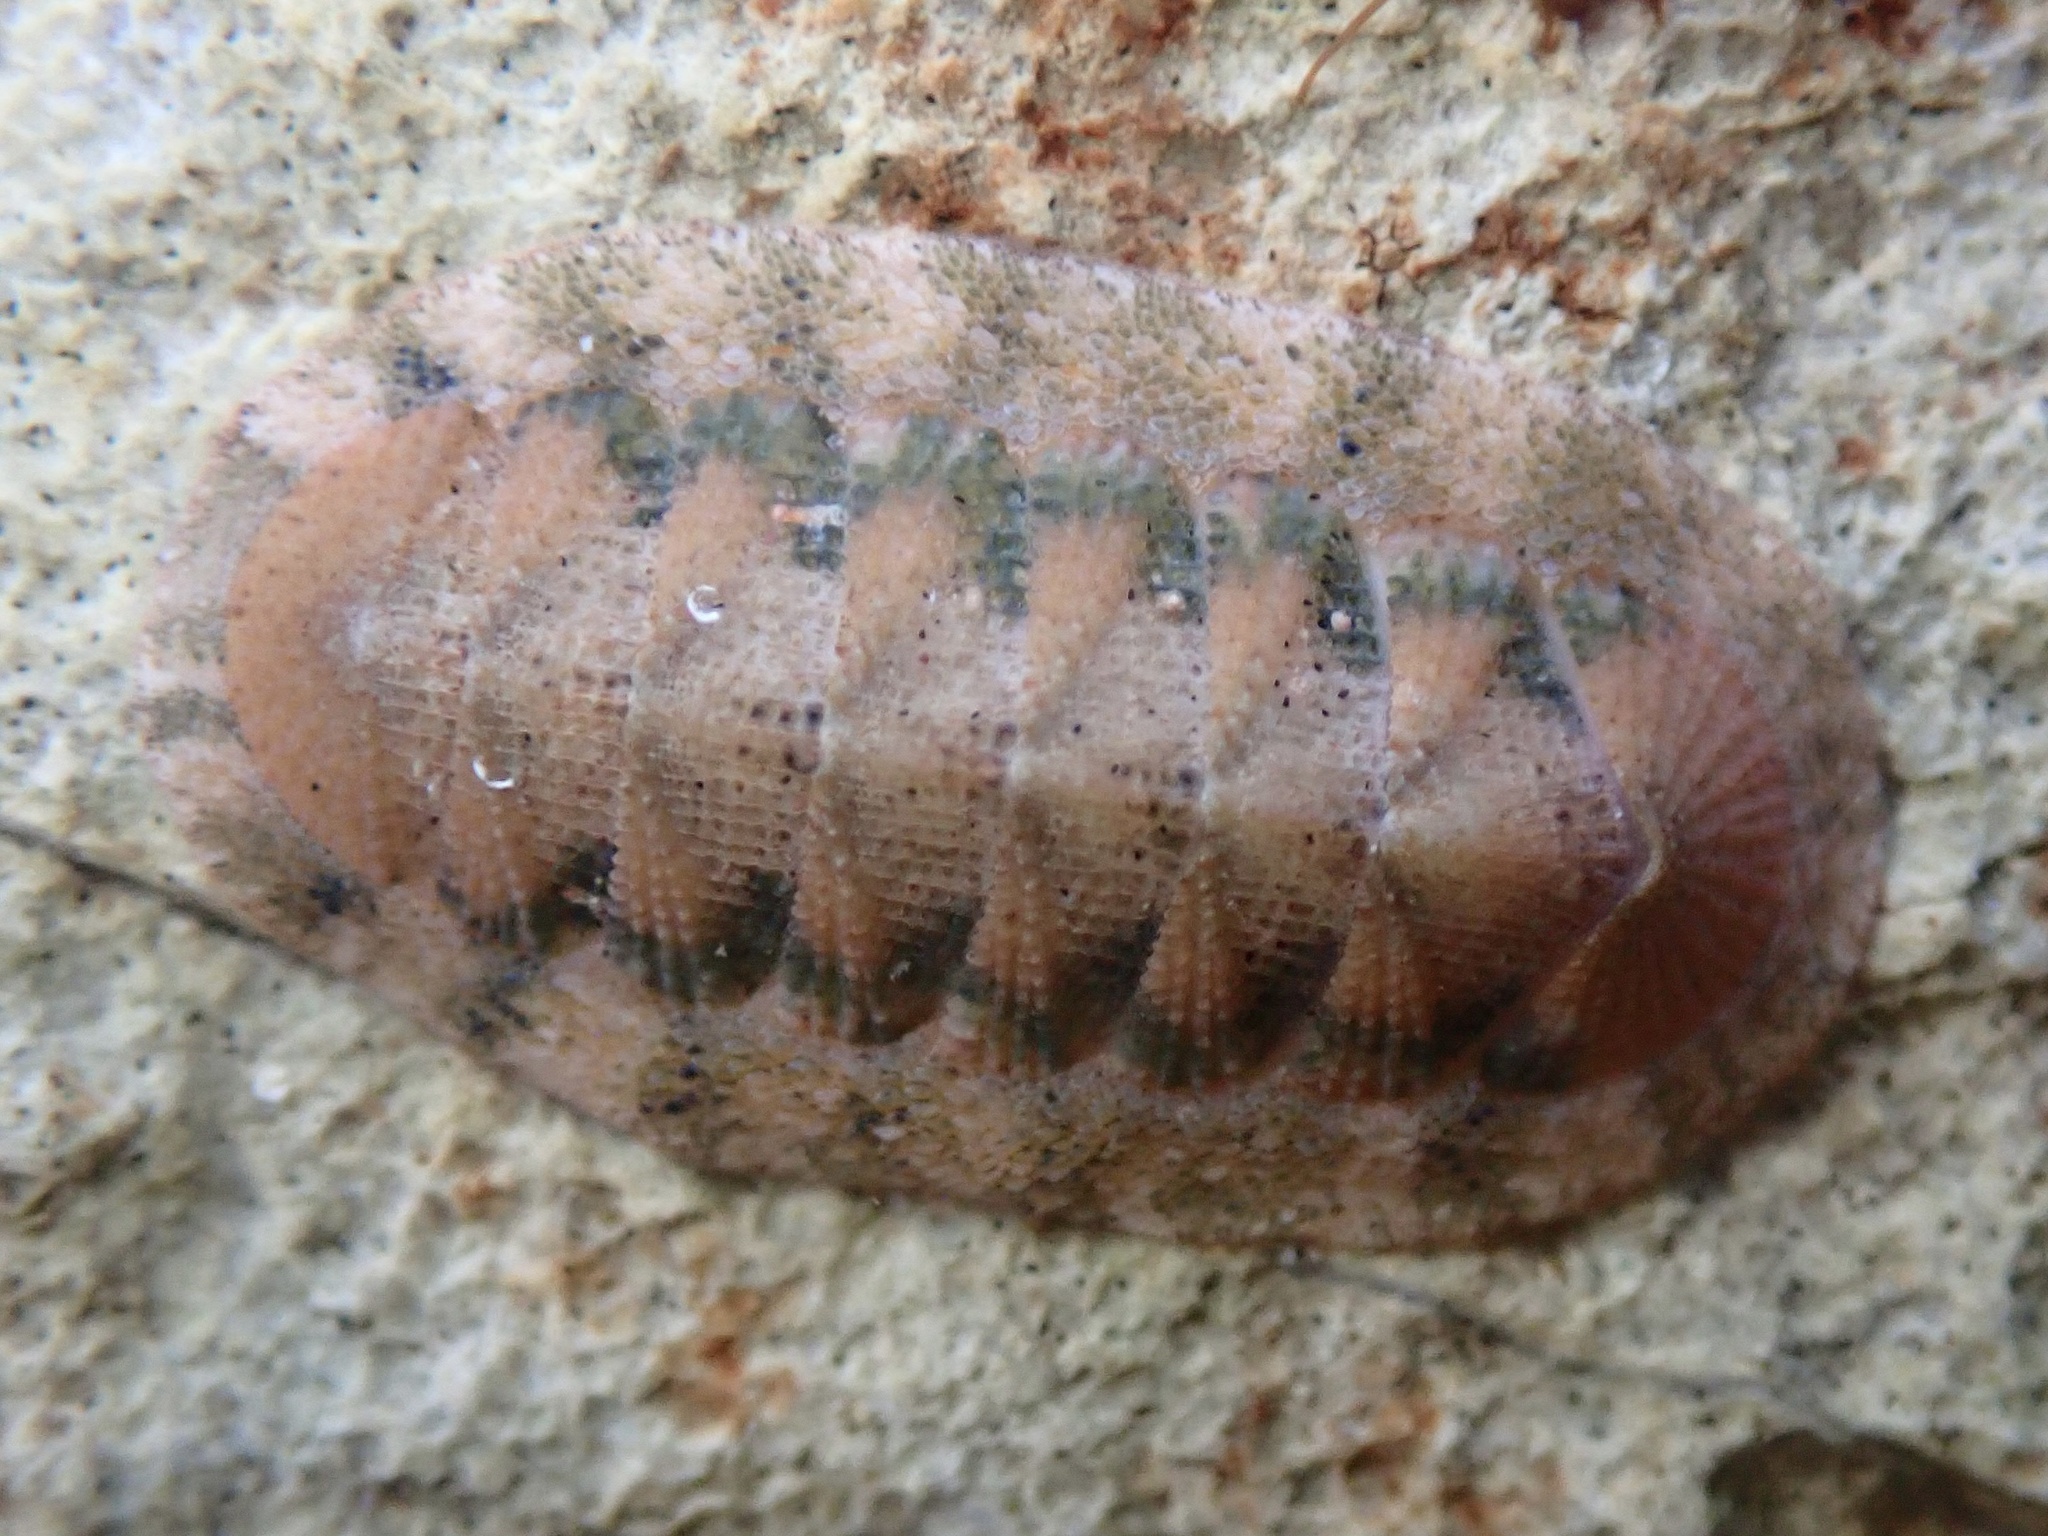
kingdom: Animalia
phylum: Mollusca
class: Polyplacophora
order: Chitonida
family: Ischnochitonidae
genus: Lepidozona
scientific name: Lepidozona pectinulata
